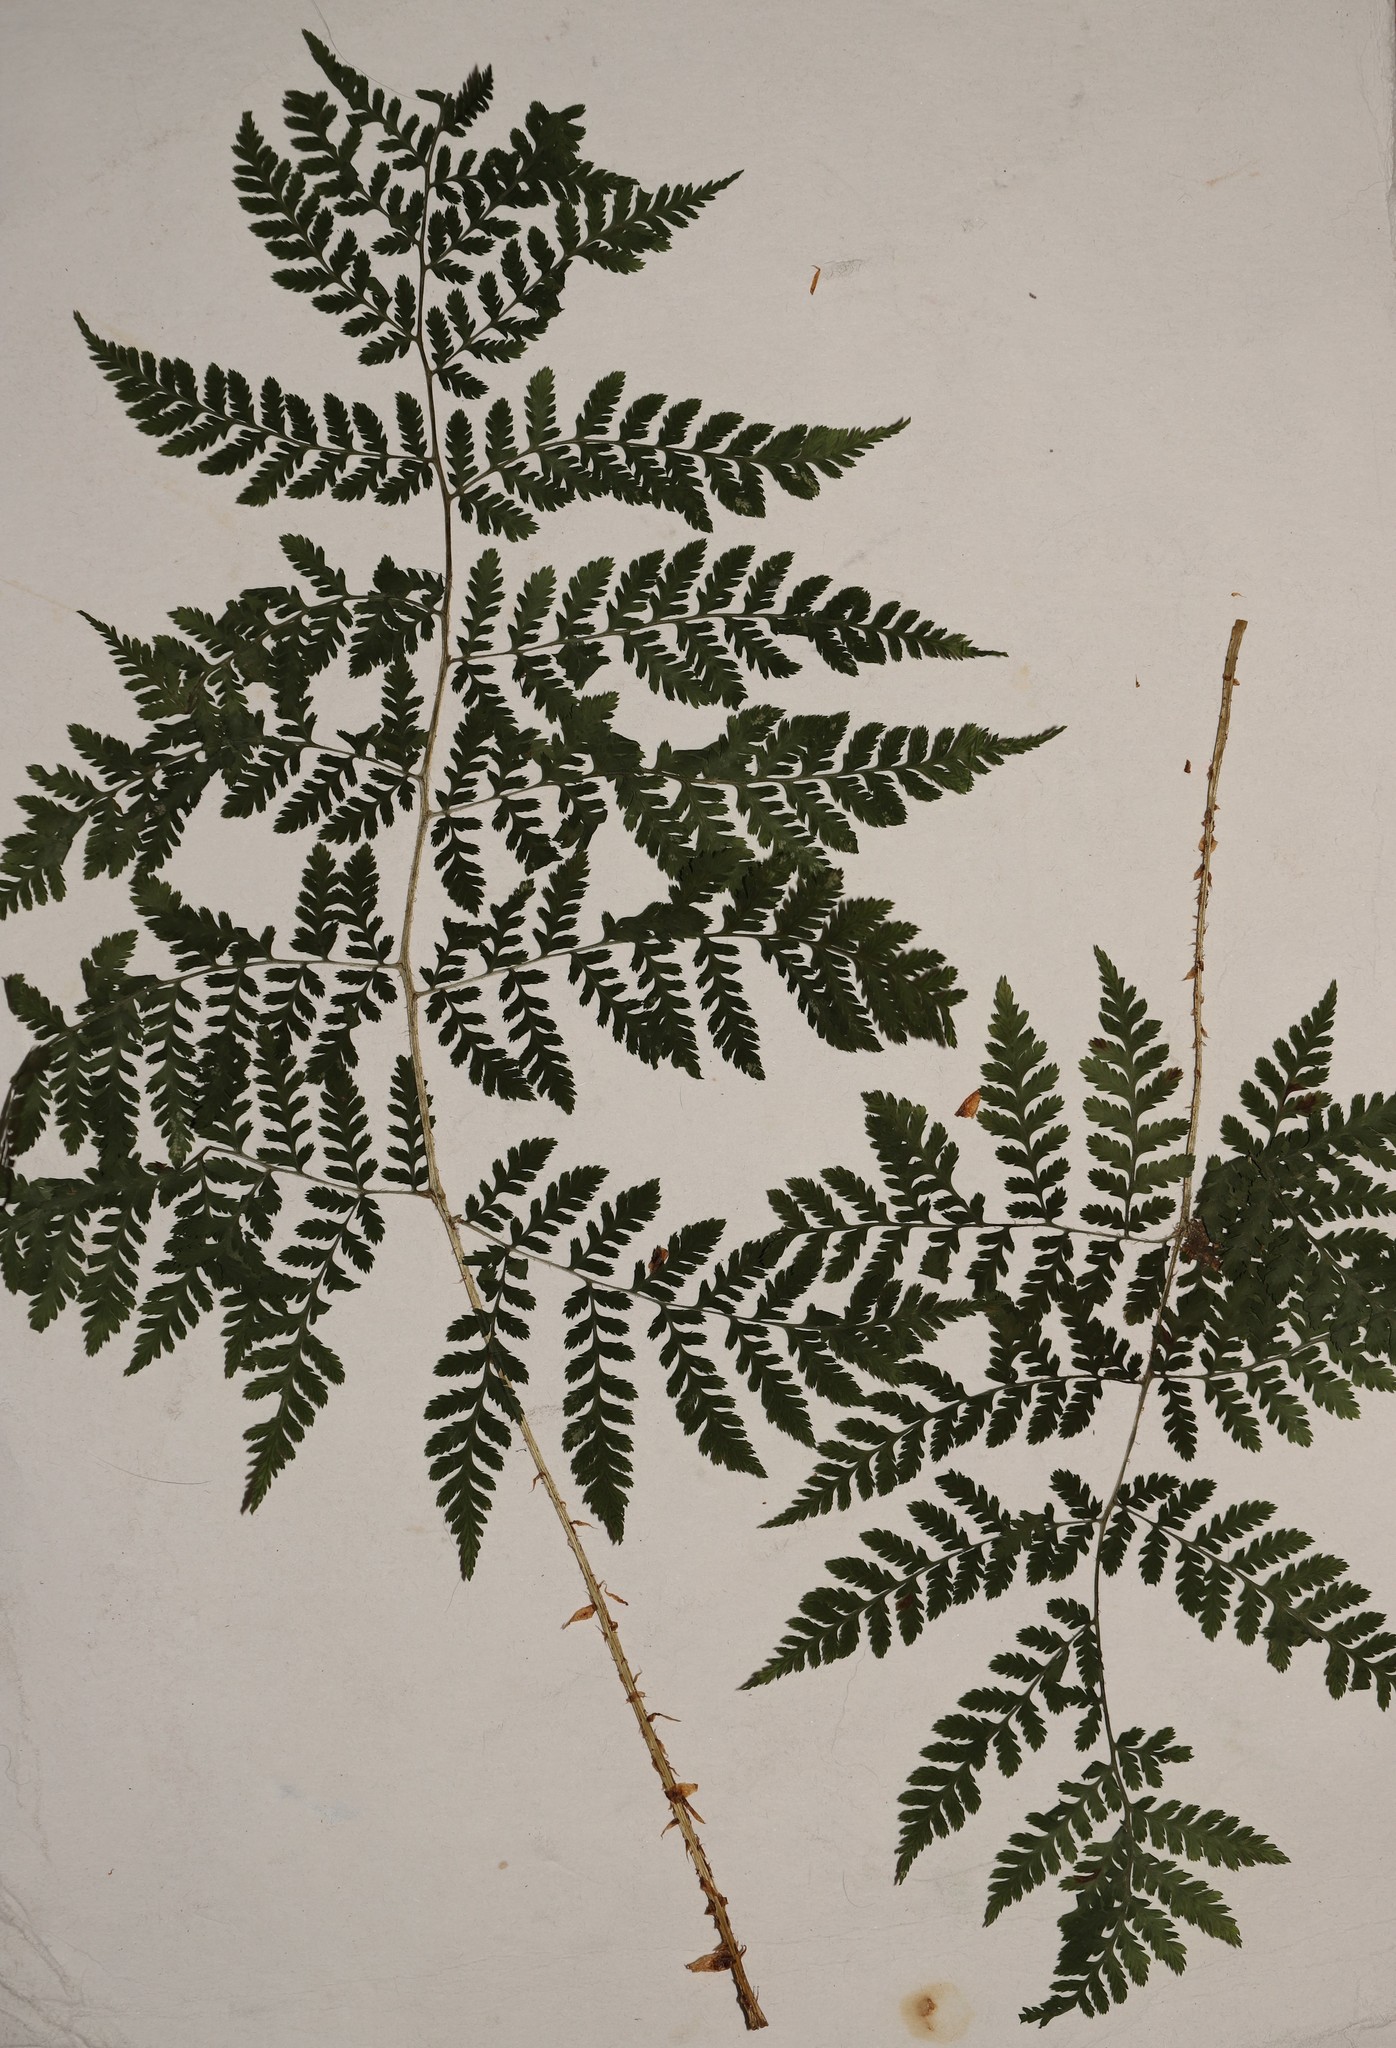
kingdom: Plantae
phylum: Tracheophyta
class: Polypodiopsida
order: Polypodiales
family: Dryopteridaceae
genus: Dryopteris
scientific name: Dryopteris expansa
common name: Northern buckler fern
